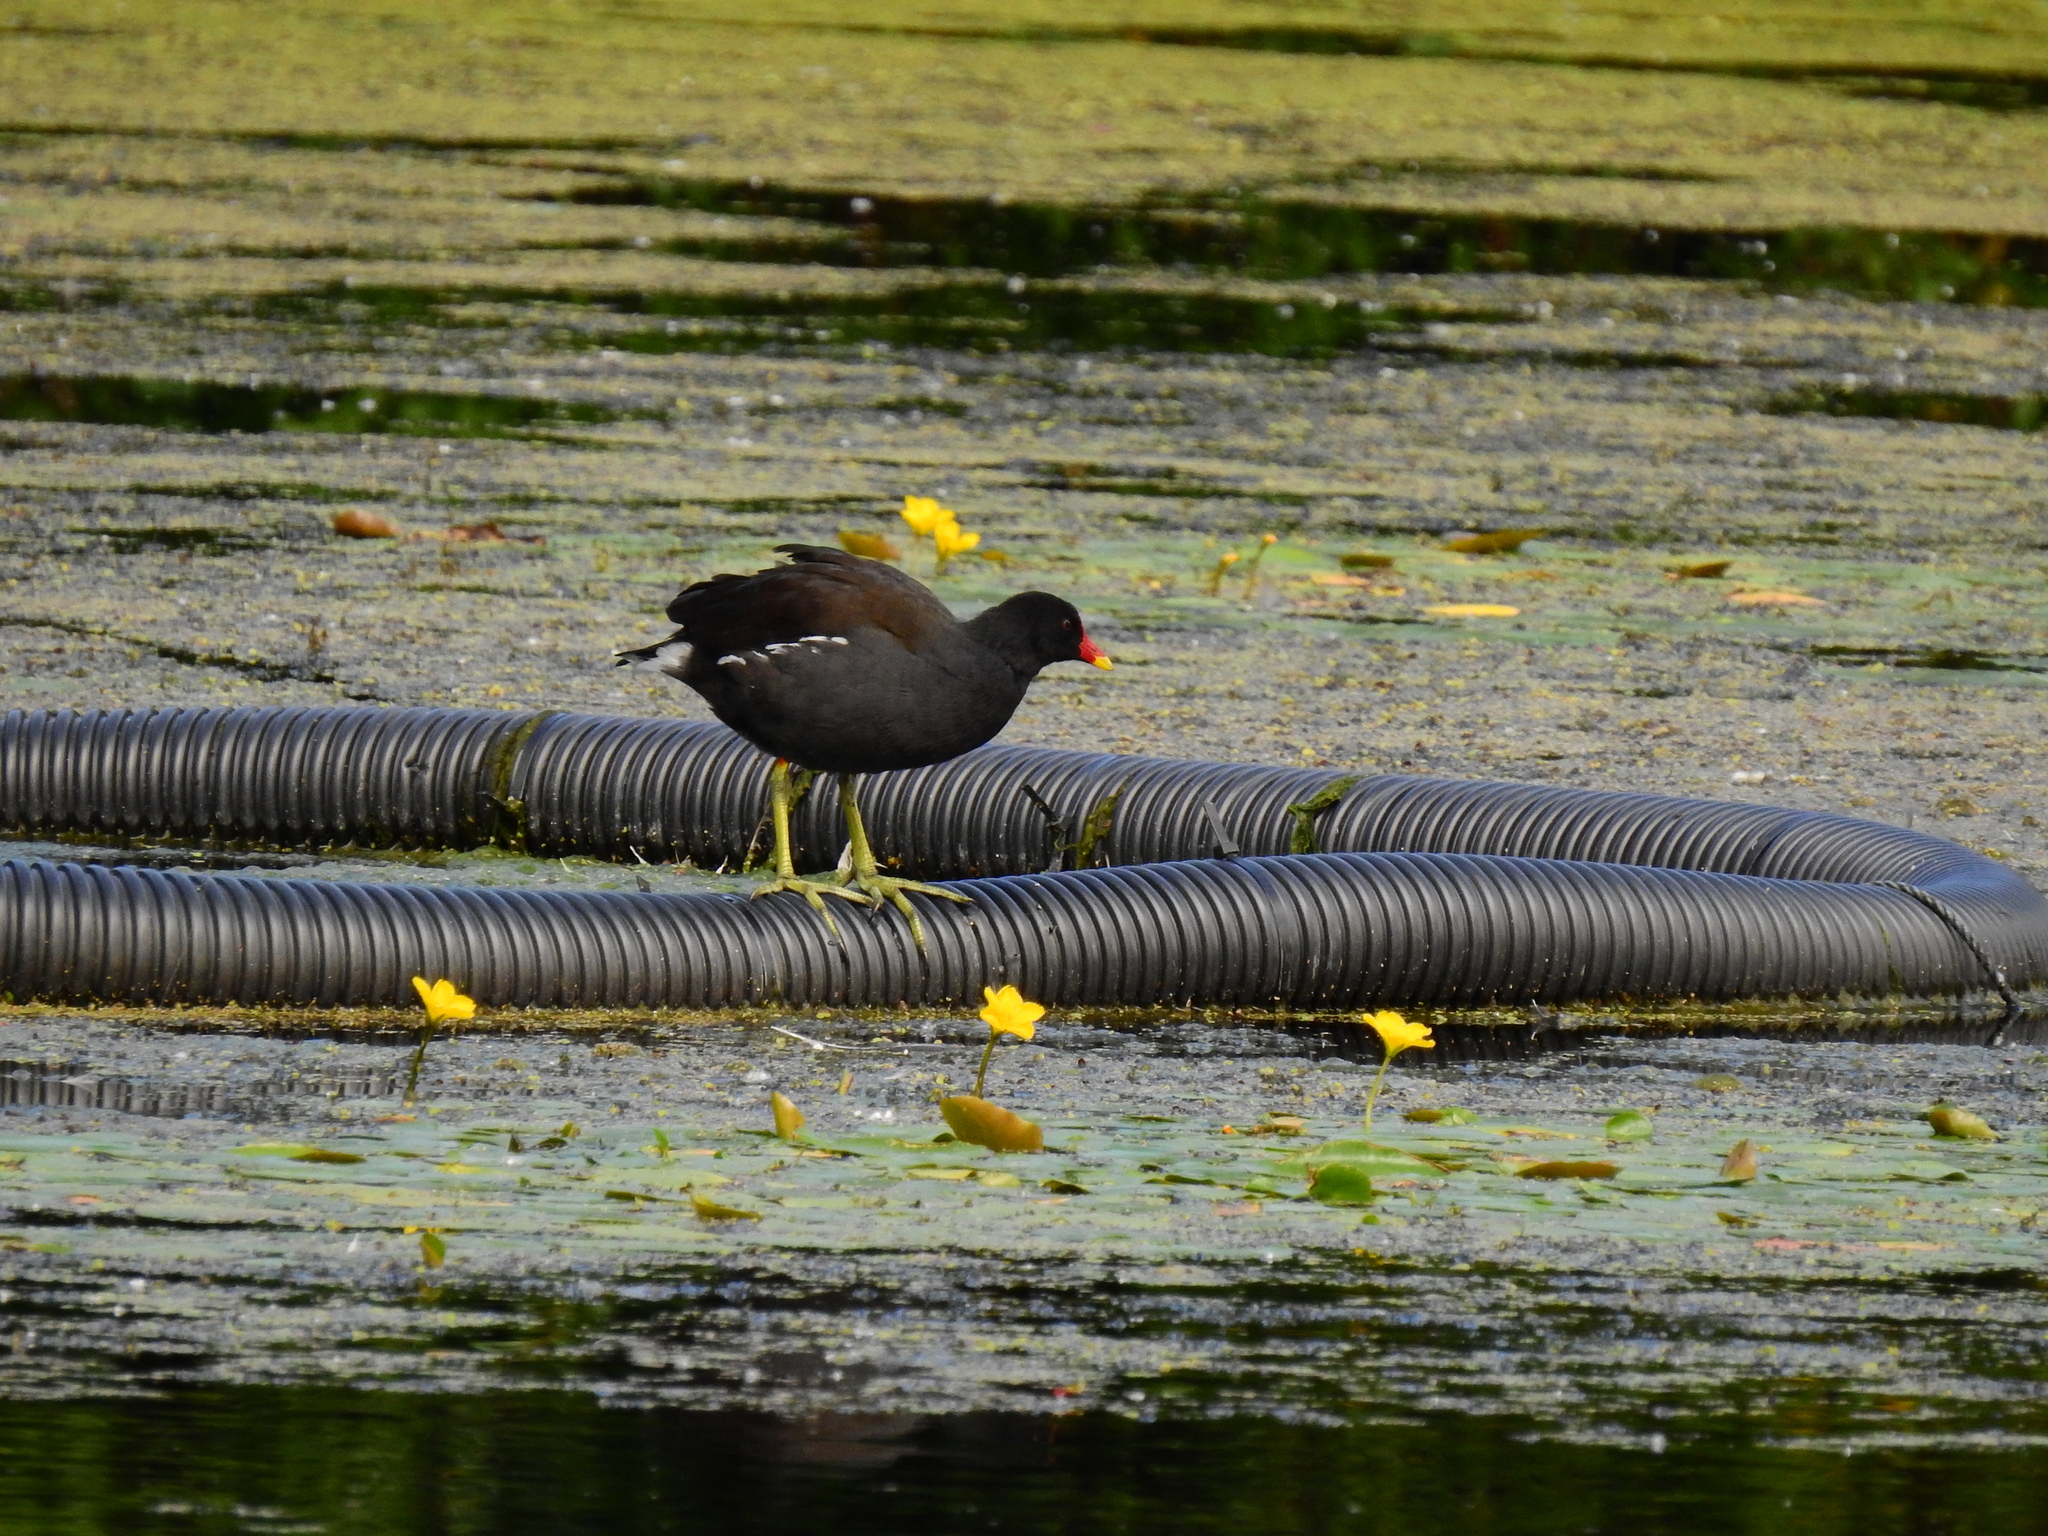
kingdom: Animalia
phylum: Chordata
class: Aves
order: Gruiformes
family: Rallidae
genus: Gallinula
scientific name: Gallinula chloropus
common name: Common moorhen
